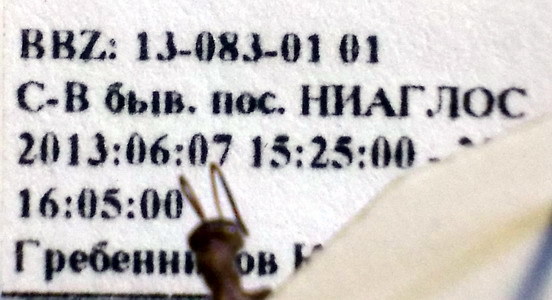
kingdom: Animalia
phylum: Arthropoda
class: Insecta
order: Hymenoptera
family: Formicidae
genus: Formica
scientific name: Formica subpilosa
